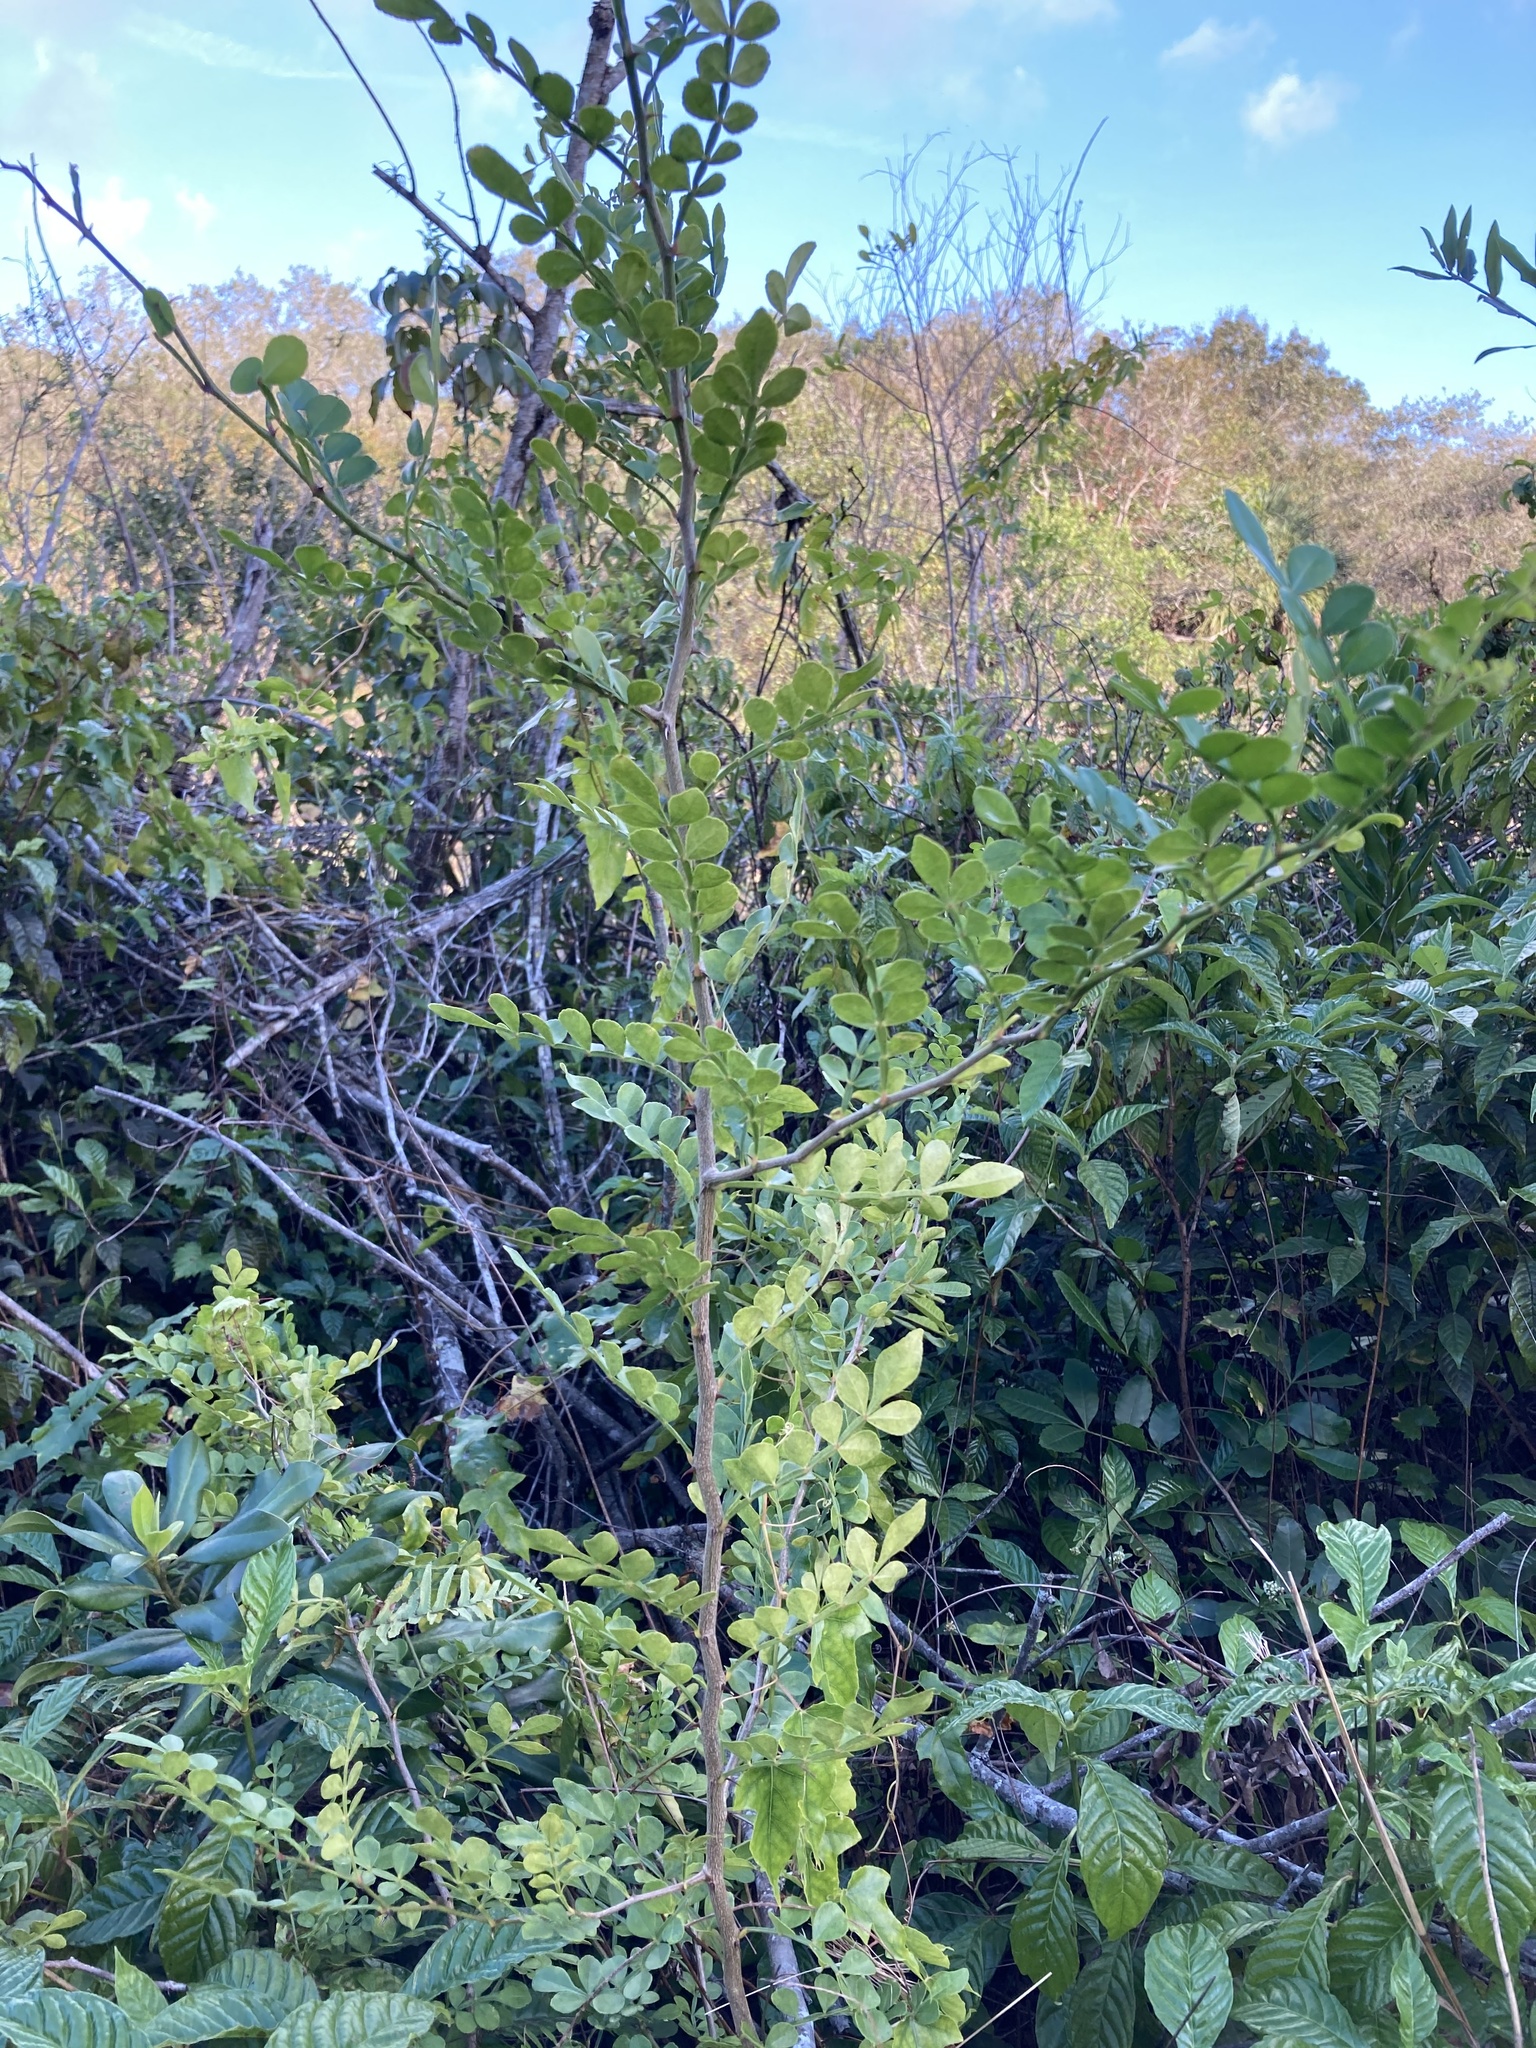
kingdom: Plantae
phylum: Tracheophyta
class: Magnoliopsida
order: Sapindales
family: Rutaceae
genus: Zanthoxylum
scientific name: Zanthoxylum fagara
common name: Lime prickly-ash
